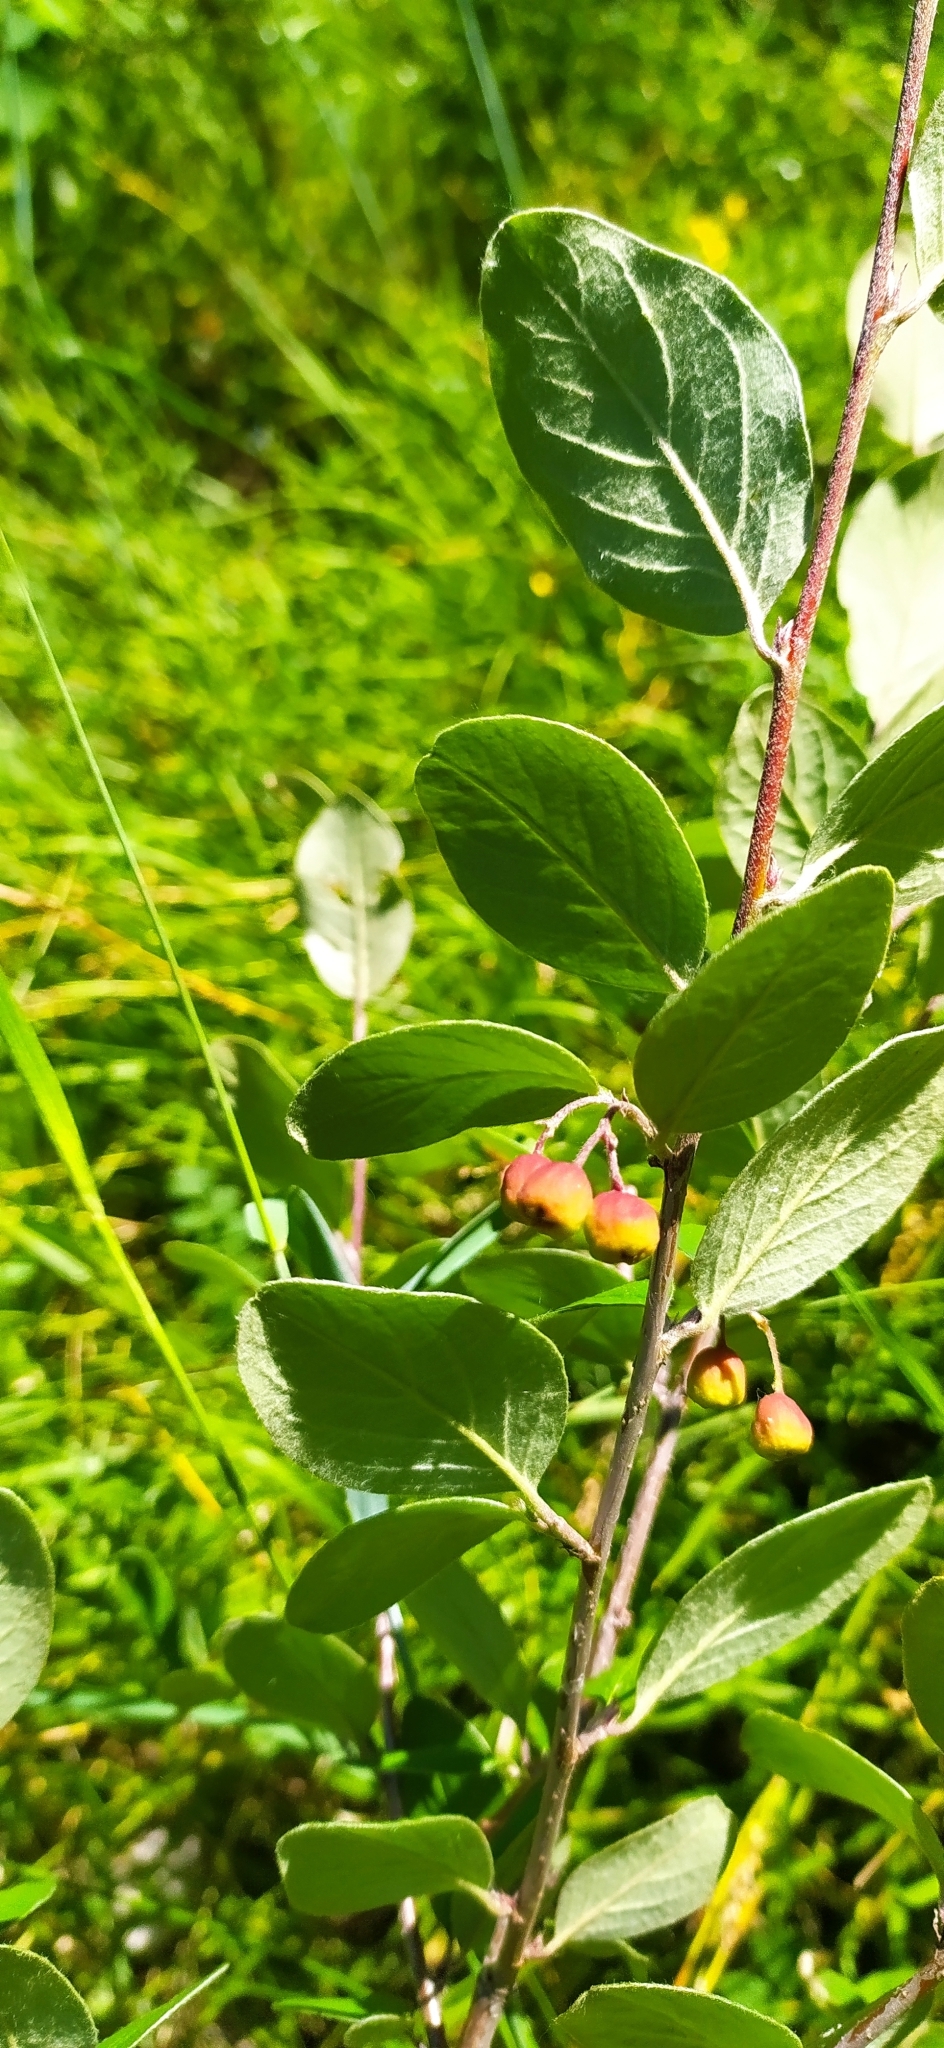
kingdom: Plantae
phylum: Tracheophyta
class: Magnoliopsida
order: Rosales
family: Rosaceae
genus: Cotoneaster
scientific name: Cotoneaster melanocarpus
